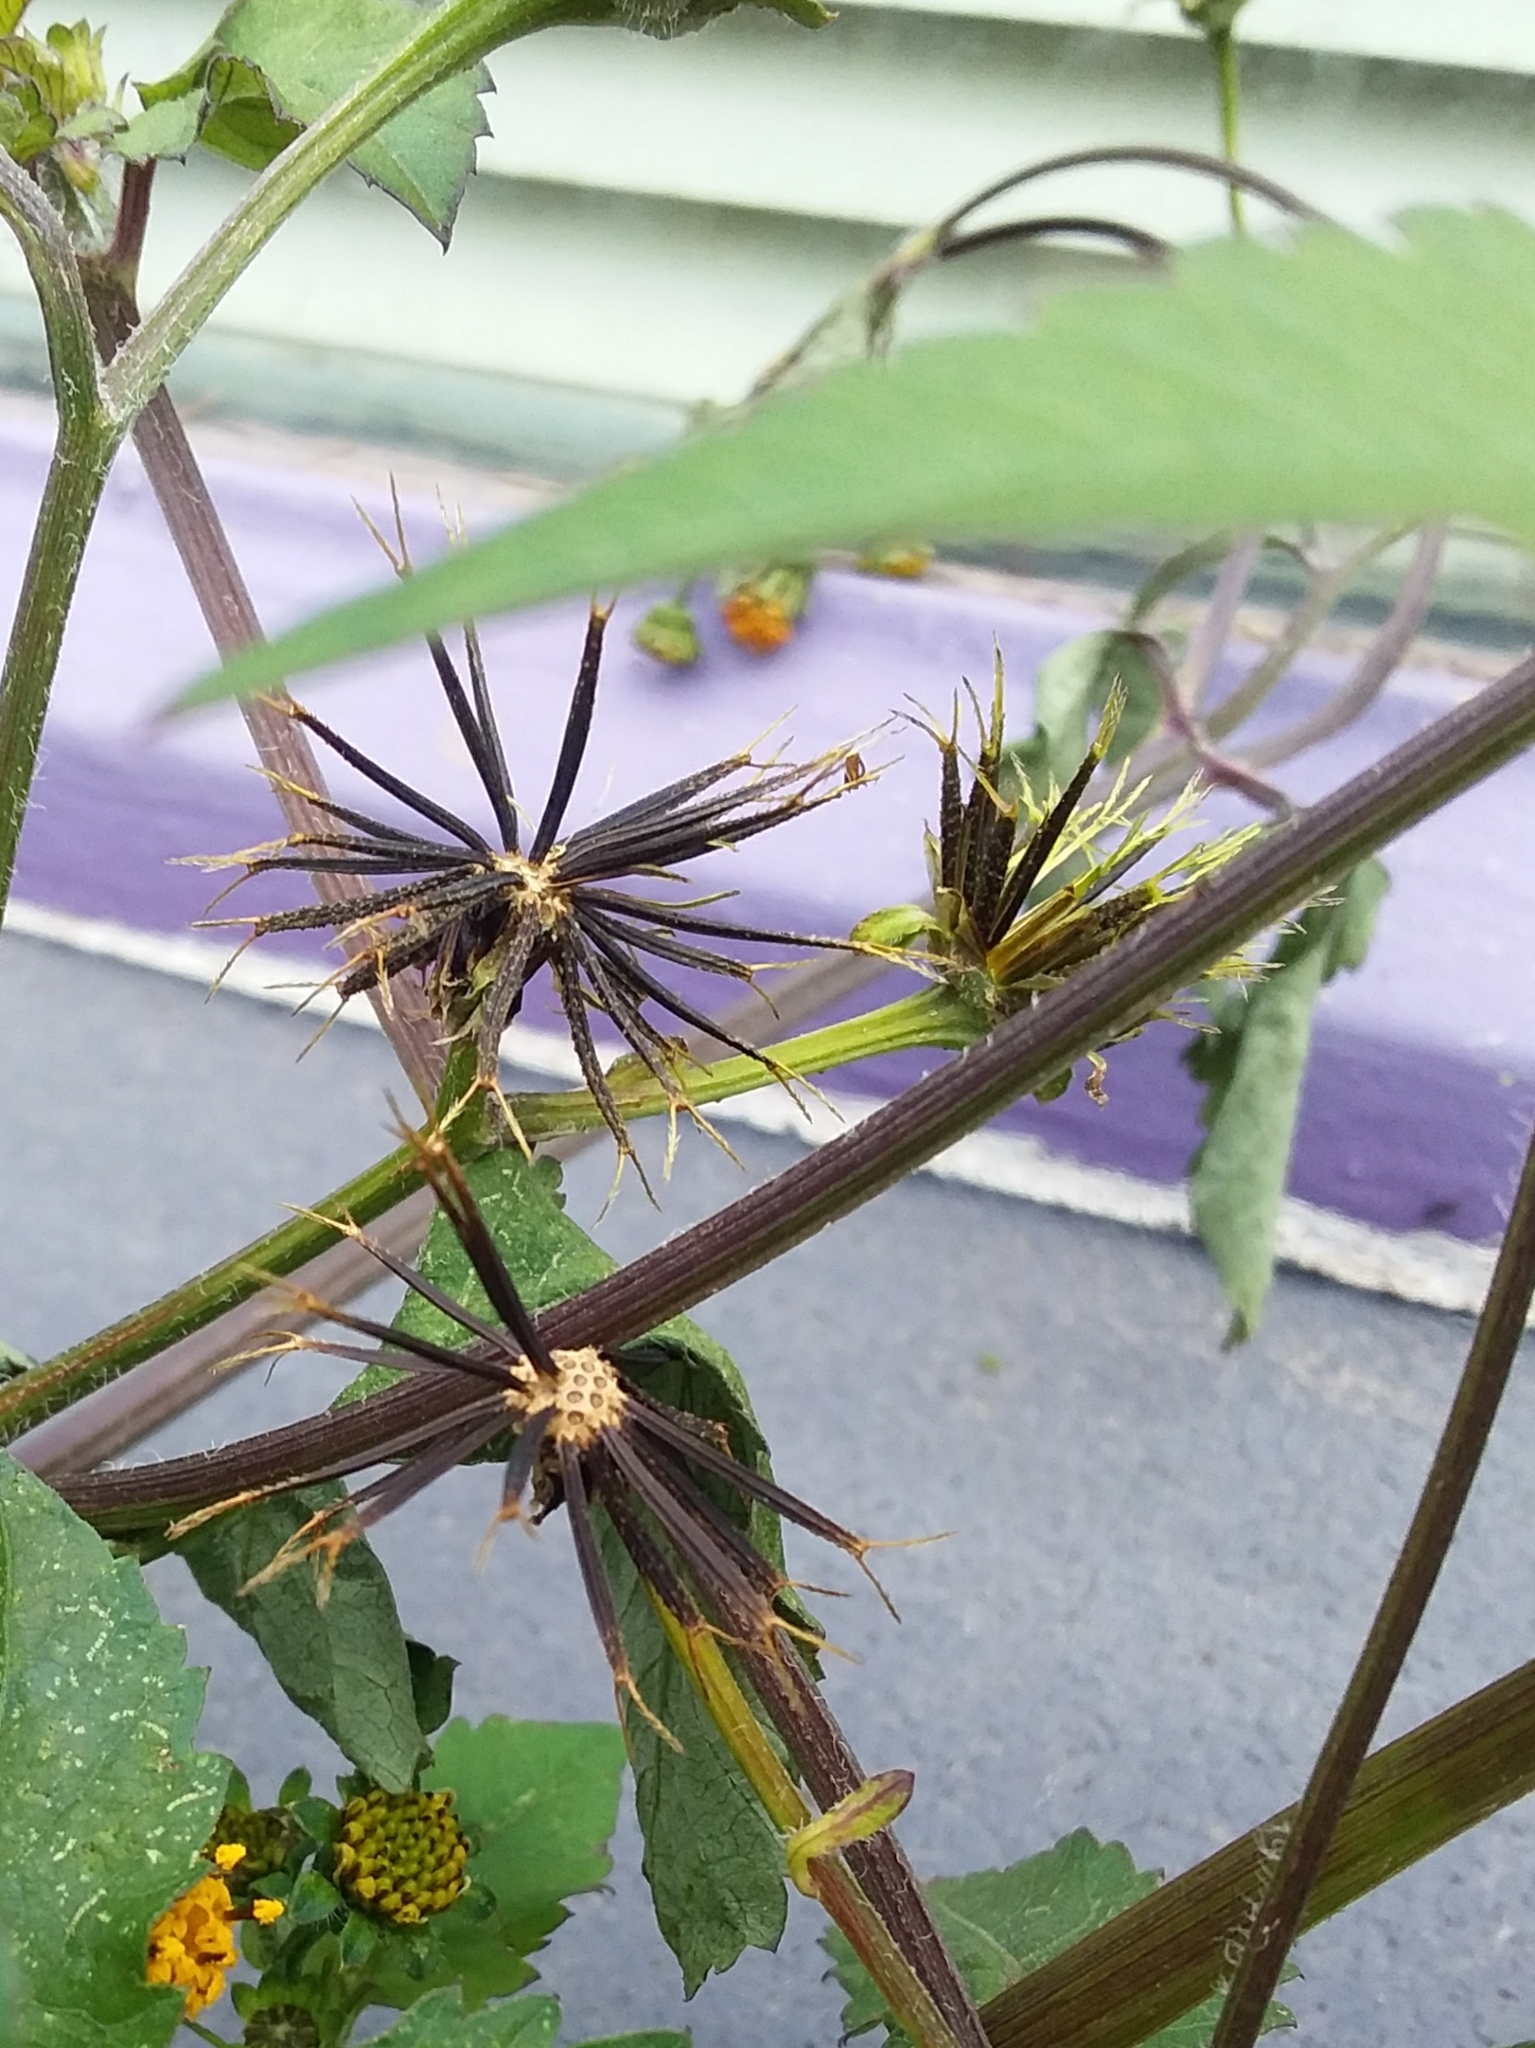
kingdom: Plantae
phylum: Tracheophyta
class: Magnoliopsida
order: Asterales
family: Asteraceae
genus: Bidens
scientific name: Bidens pilosa
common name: Black-jack
